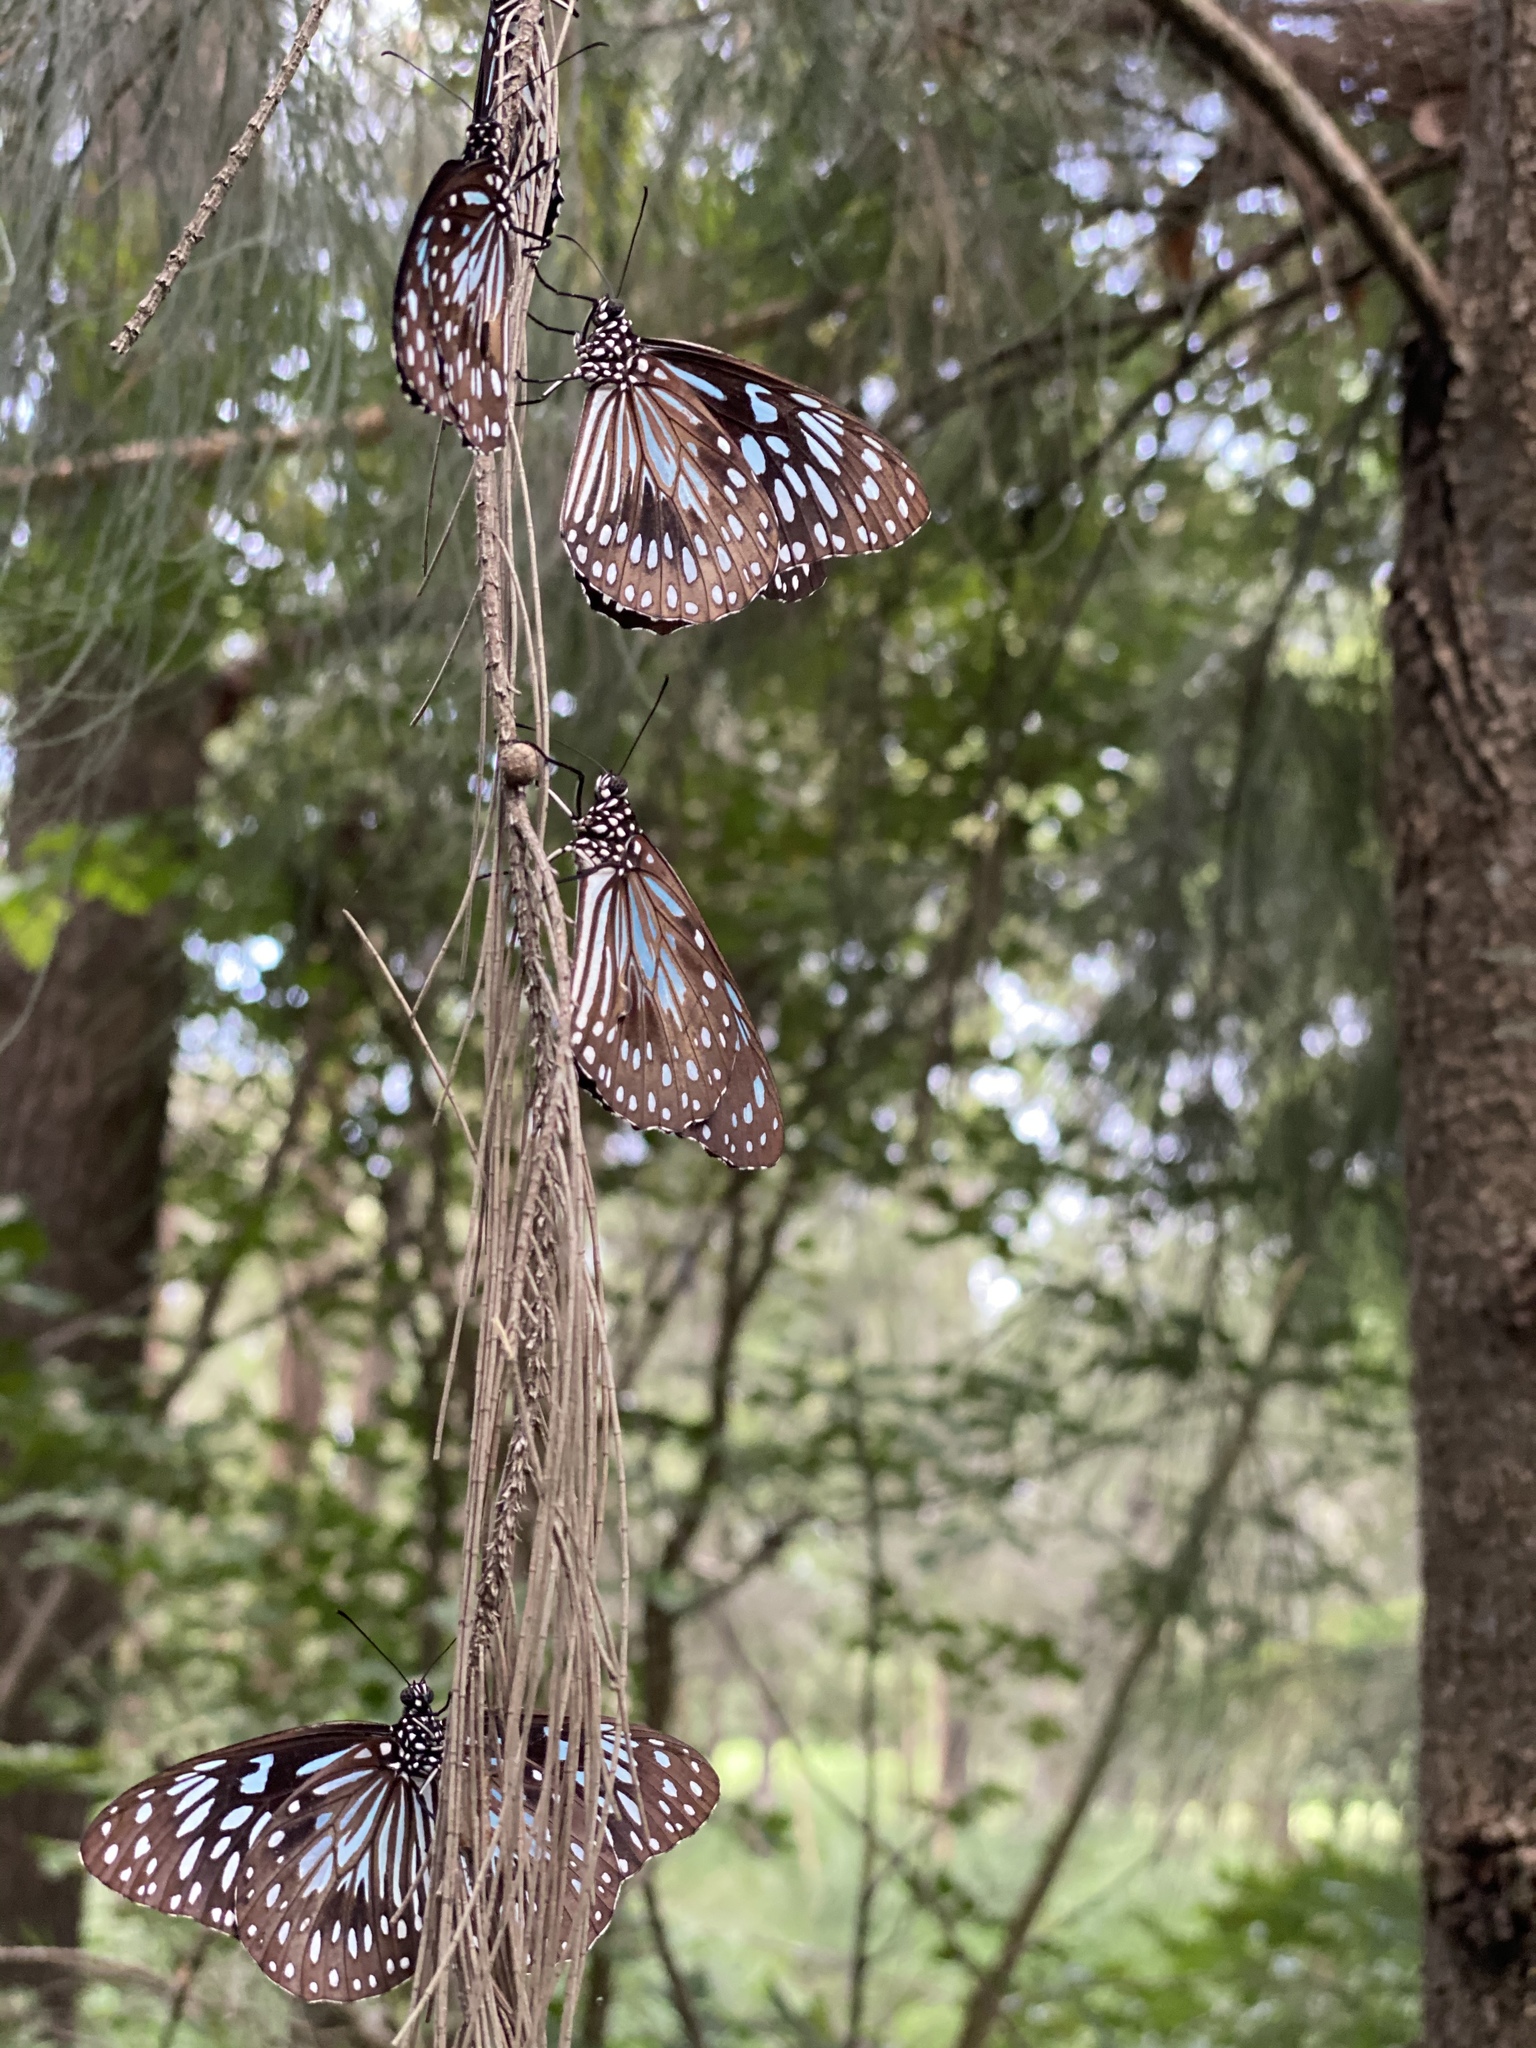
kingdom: Animalia
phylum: Arthropoda
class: Insecta
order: Lepidoptera
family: Nymphalidae
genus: Tirumala
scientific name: Tirumala hamata
